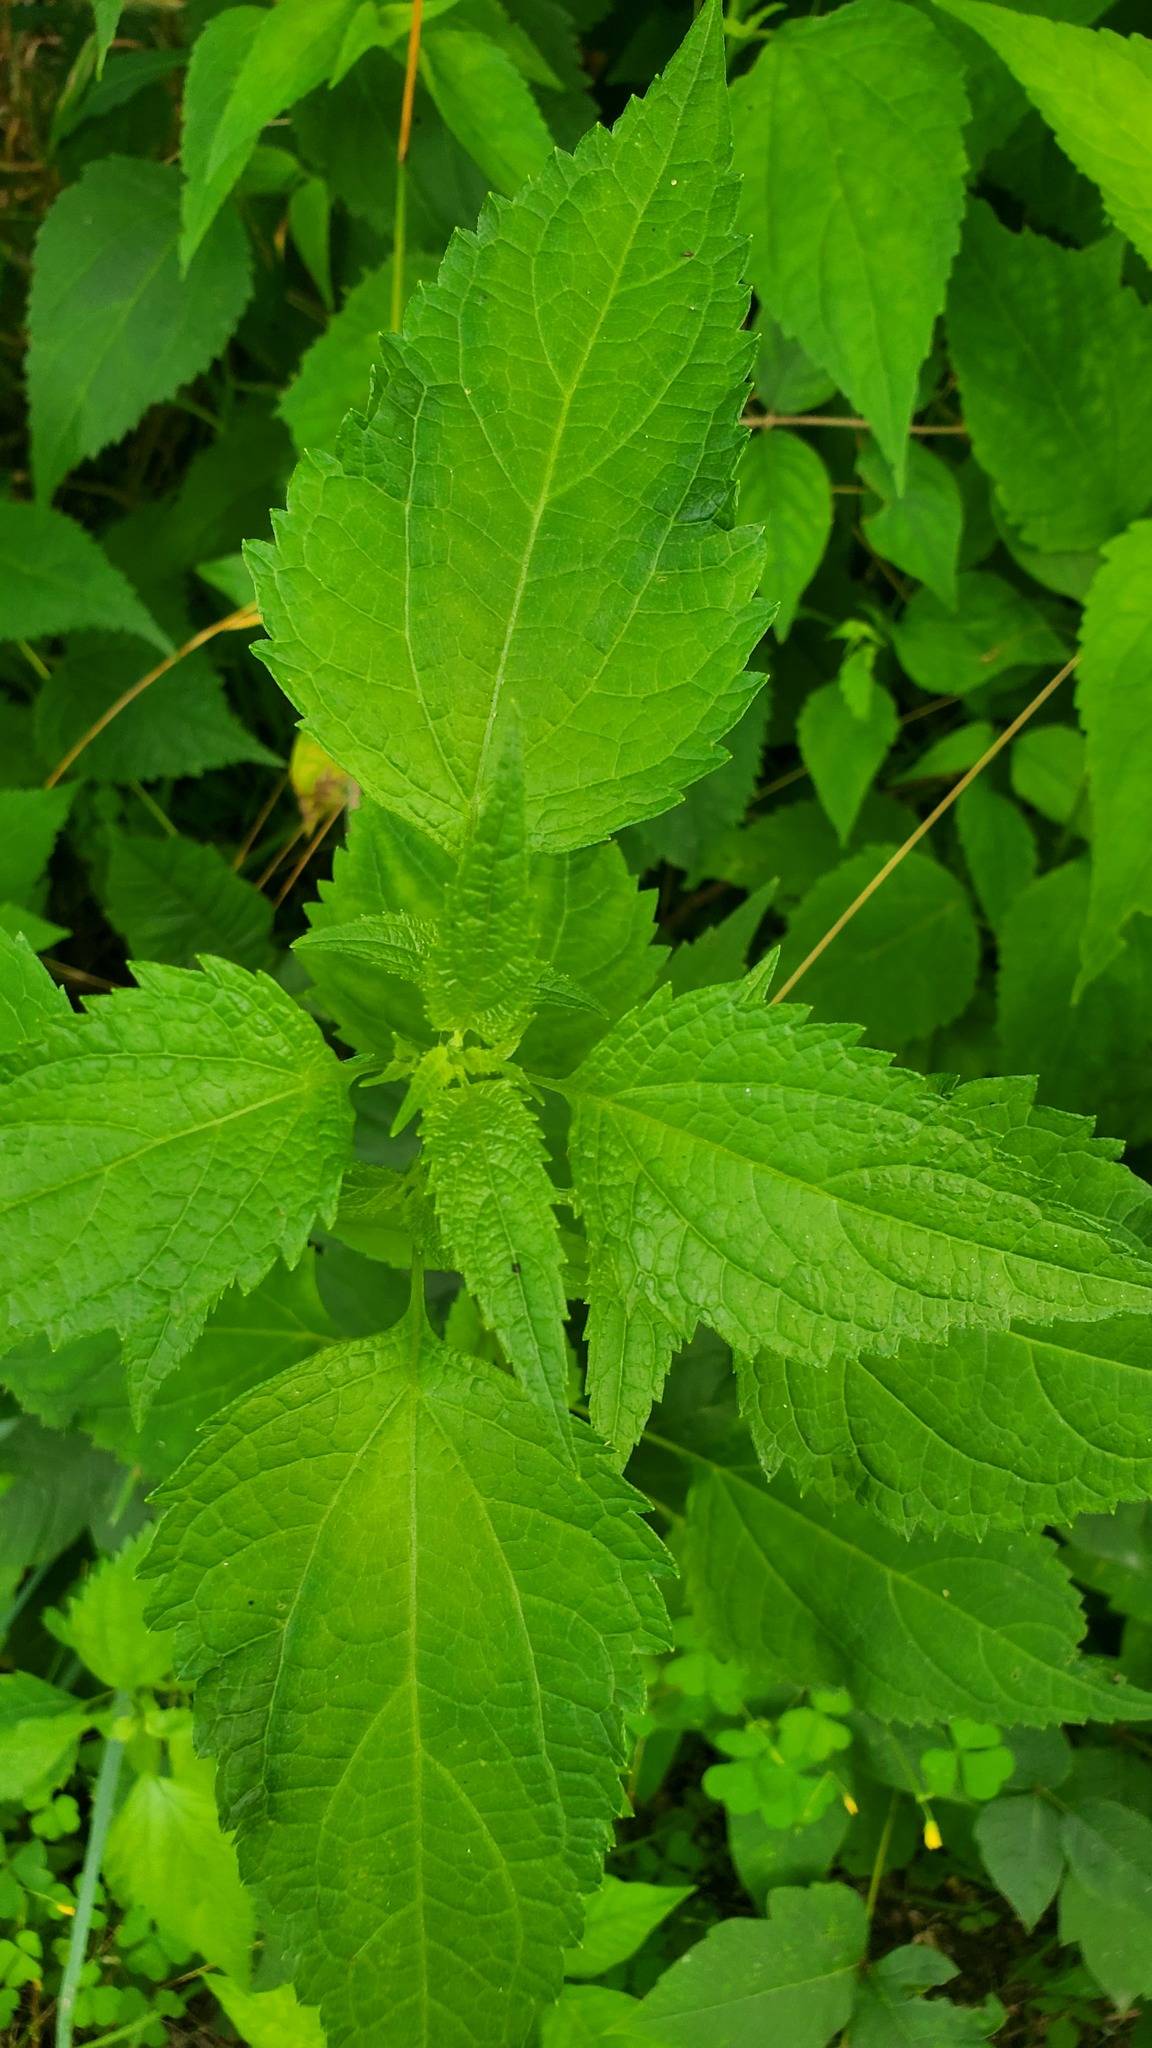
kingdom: Plantae
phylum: Tracheophyta
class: Magnoliopsida
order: Asterales
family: Asteraceae
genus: Ageratina
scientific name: Ageratina altissima
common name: White snakeroot
